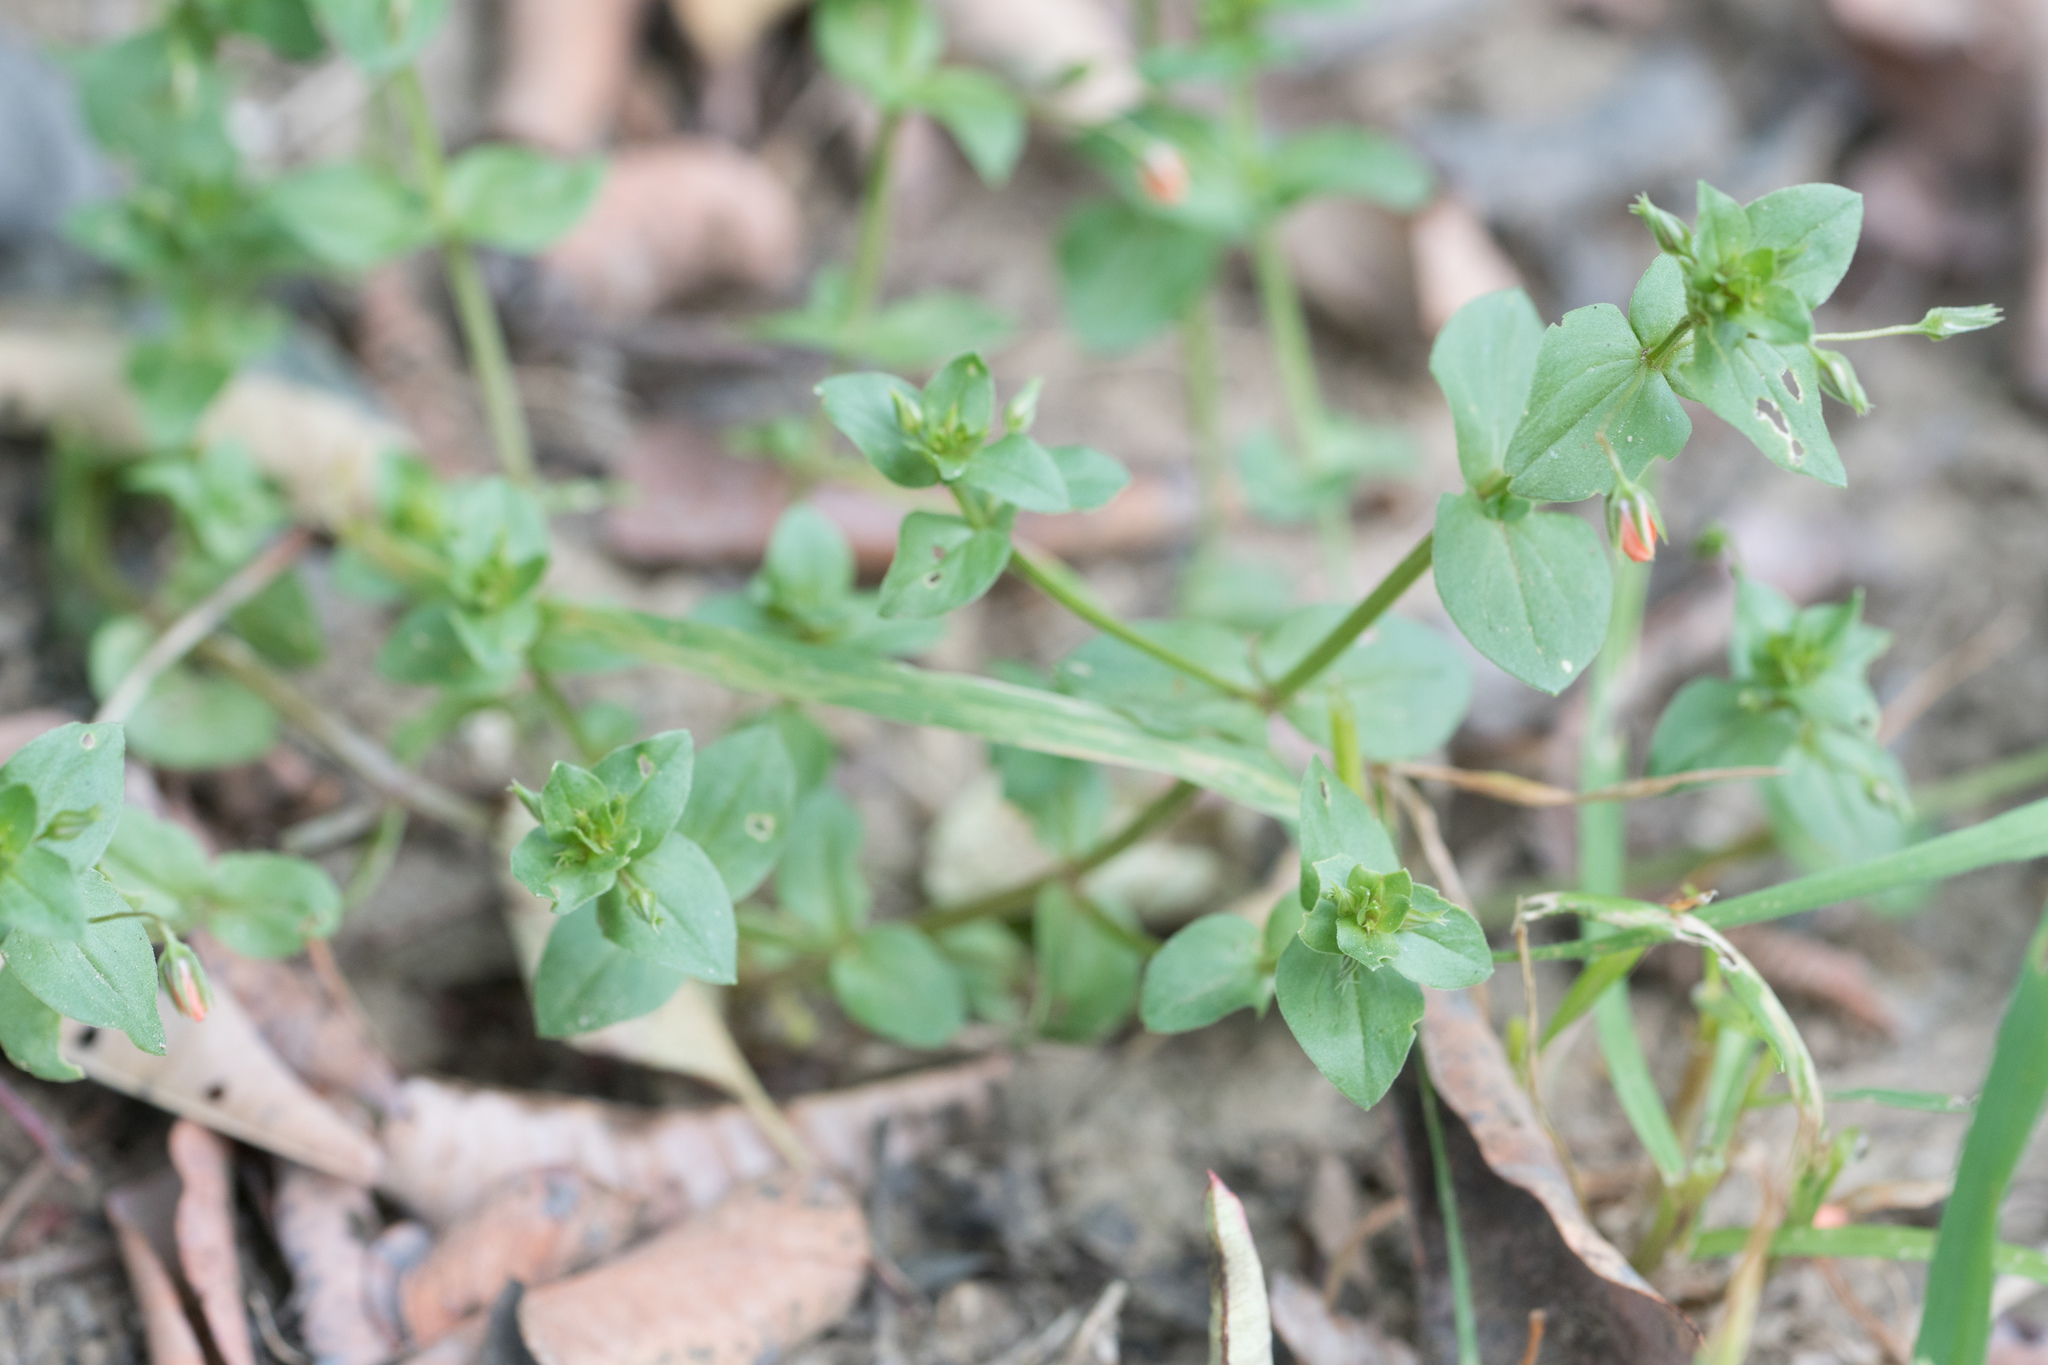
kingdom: Plantae
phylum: Tracheophyta
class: Magnoliopsida
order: Ericales
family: Primulaceae
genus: Lysimachia
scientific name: Lysimachia arvensis
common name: Scarlet pimpernel
